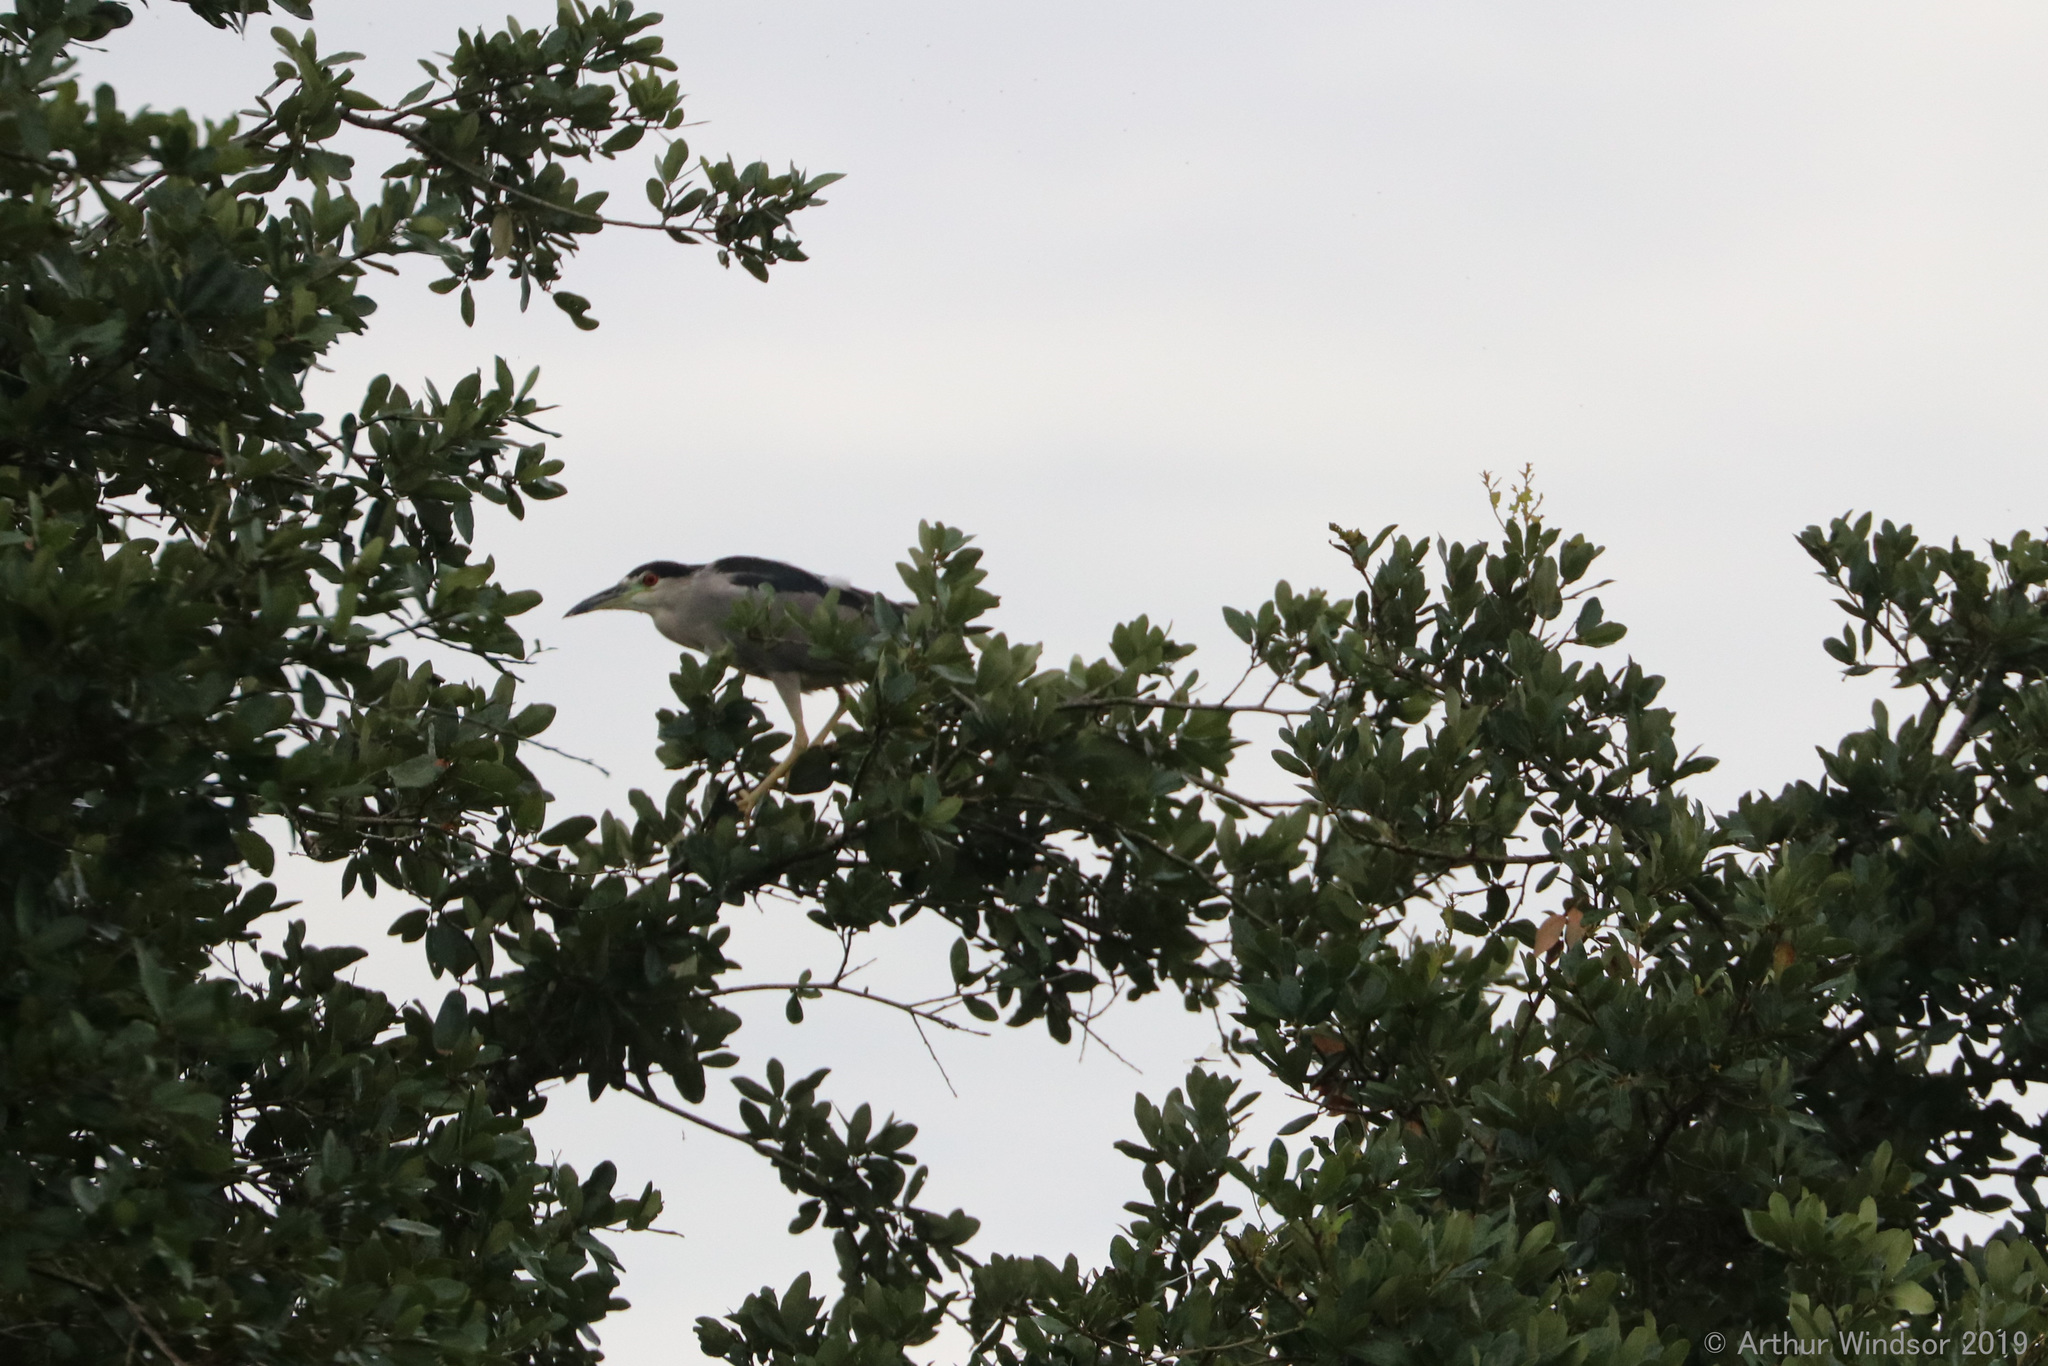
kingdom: Animalia
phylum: Chordata
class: Aves
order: Pelecaniformes
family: Ardeidae
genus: Nycticorax
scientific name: Nycticorax nycticorax
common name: Black-crowned night heron
